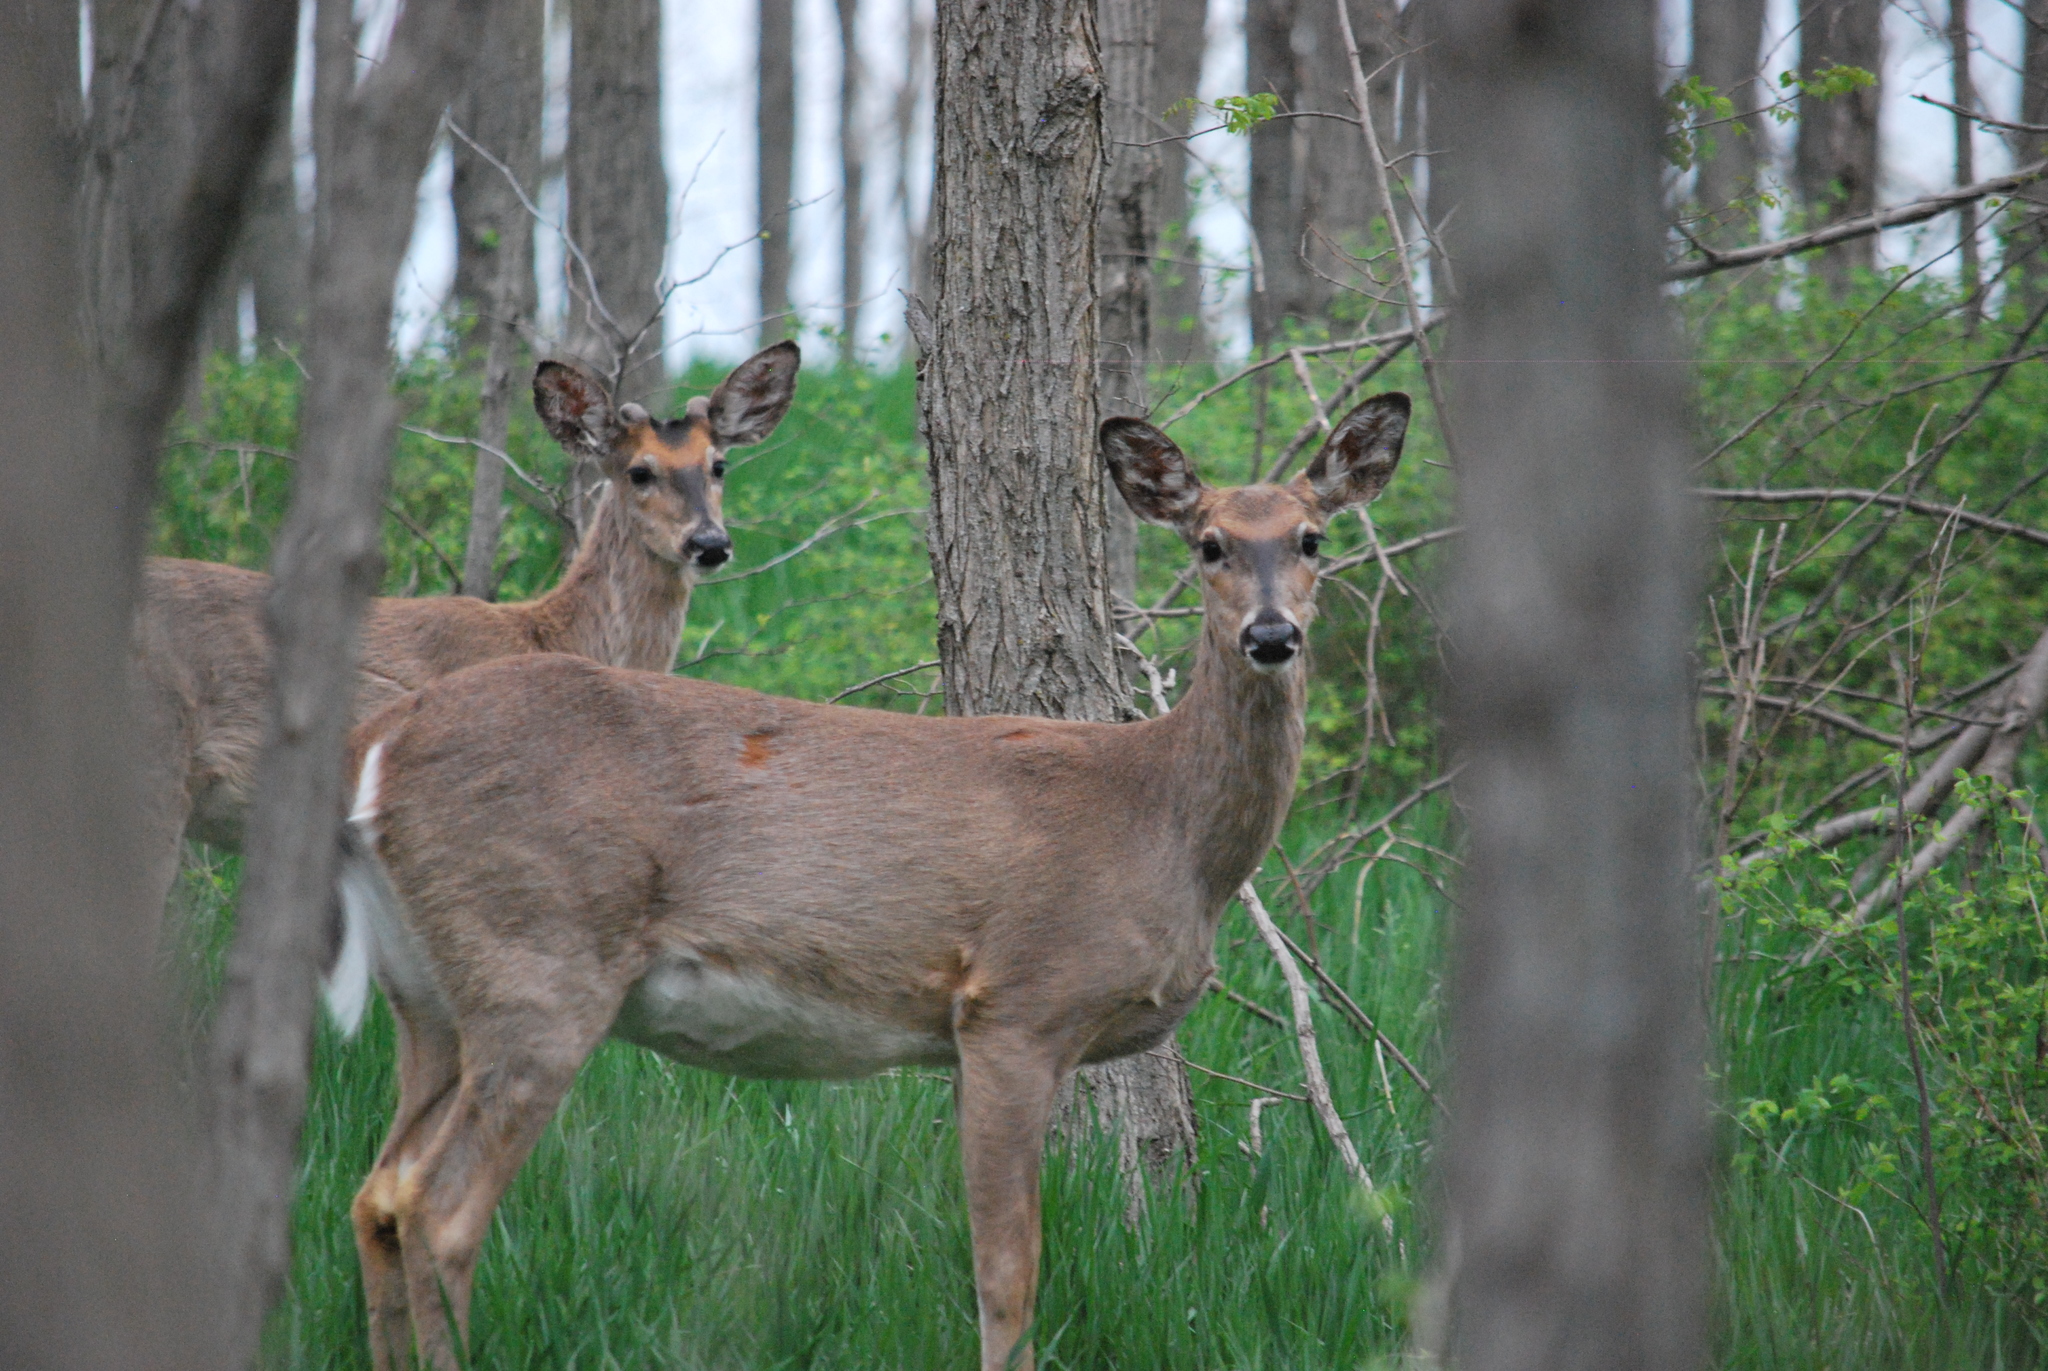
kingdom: Animalia
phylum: Chordata
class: Mammalia
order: Artiodactyla
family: Cervidae
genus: Odocoileus
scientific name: Odocoileus virginianus
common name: White-tailed deer
